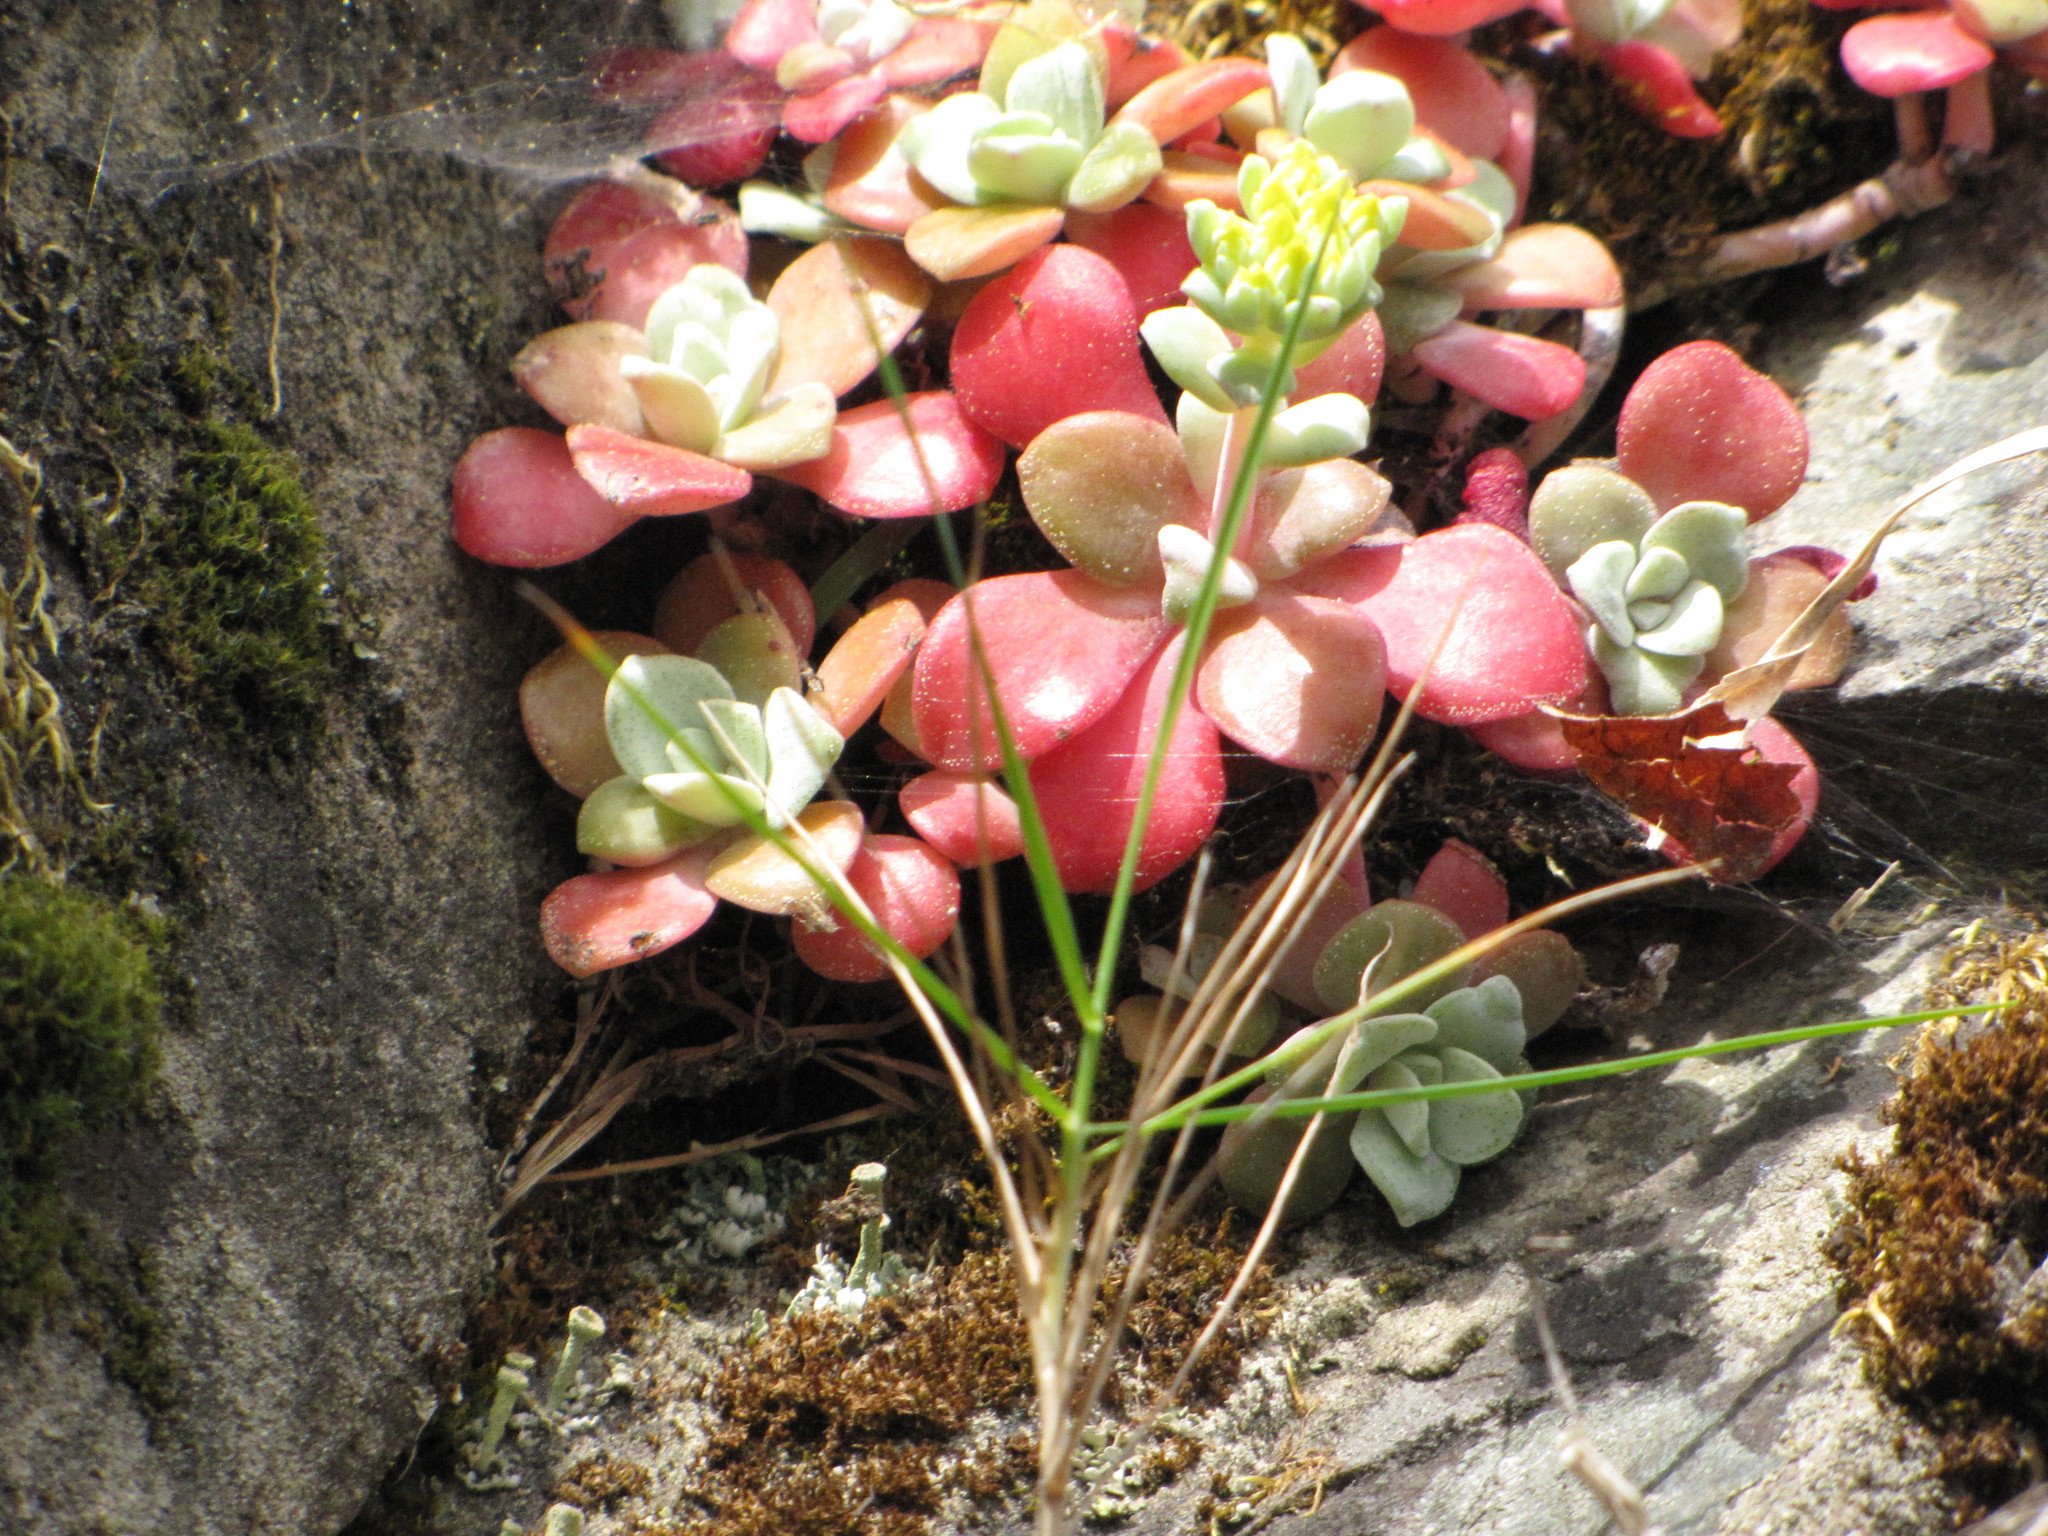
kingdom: Plantae
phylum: Tracheophyta
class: Magnoliopsida
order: Saxifragales
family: Crassulaceae
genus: Sedum
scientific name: Sedum spathulifolium
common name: Colorado stonecrop
